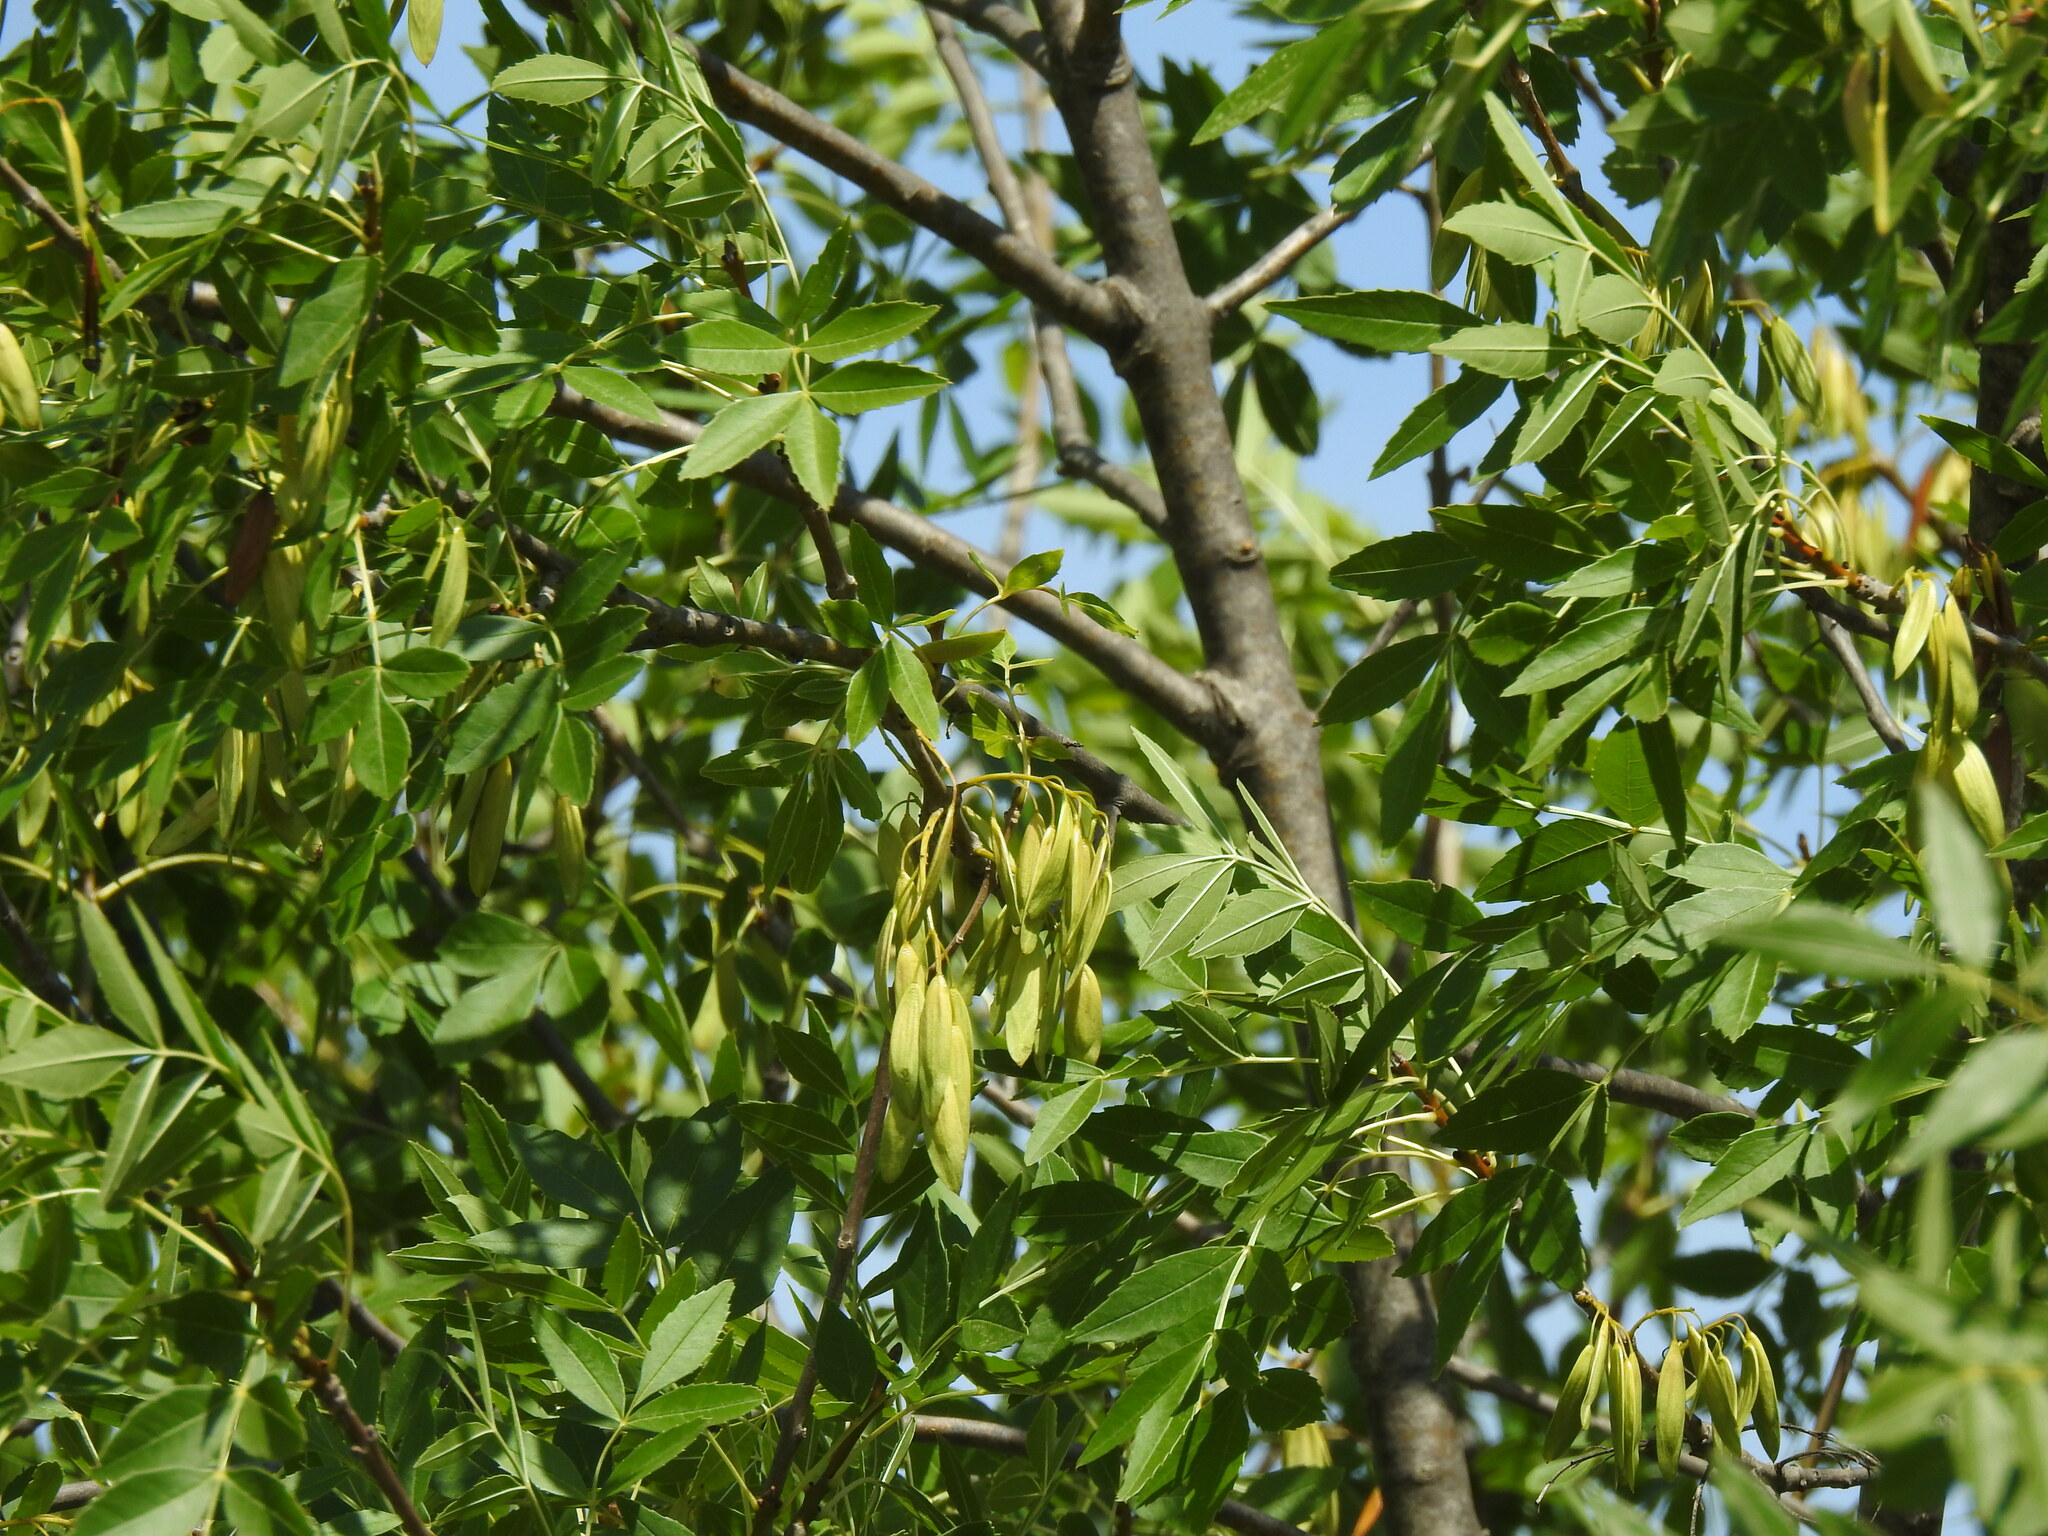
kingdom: Plantae
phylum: Tracheophyta
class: Magnoliopsida
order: Lamiales
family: Oleaceae
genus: Fraxinus
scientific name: Fraxinus angustifolia
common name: Narrow-leafed ash
